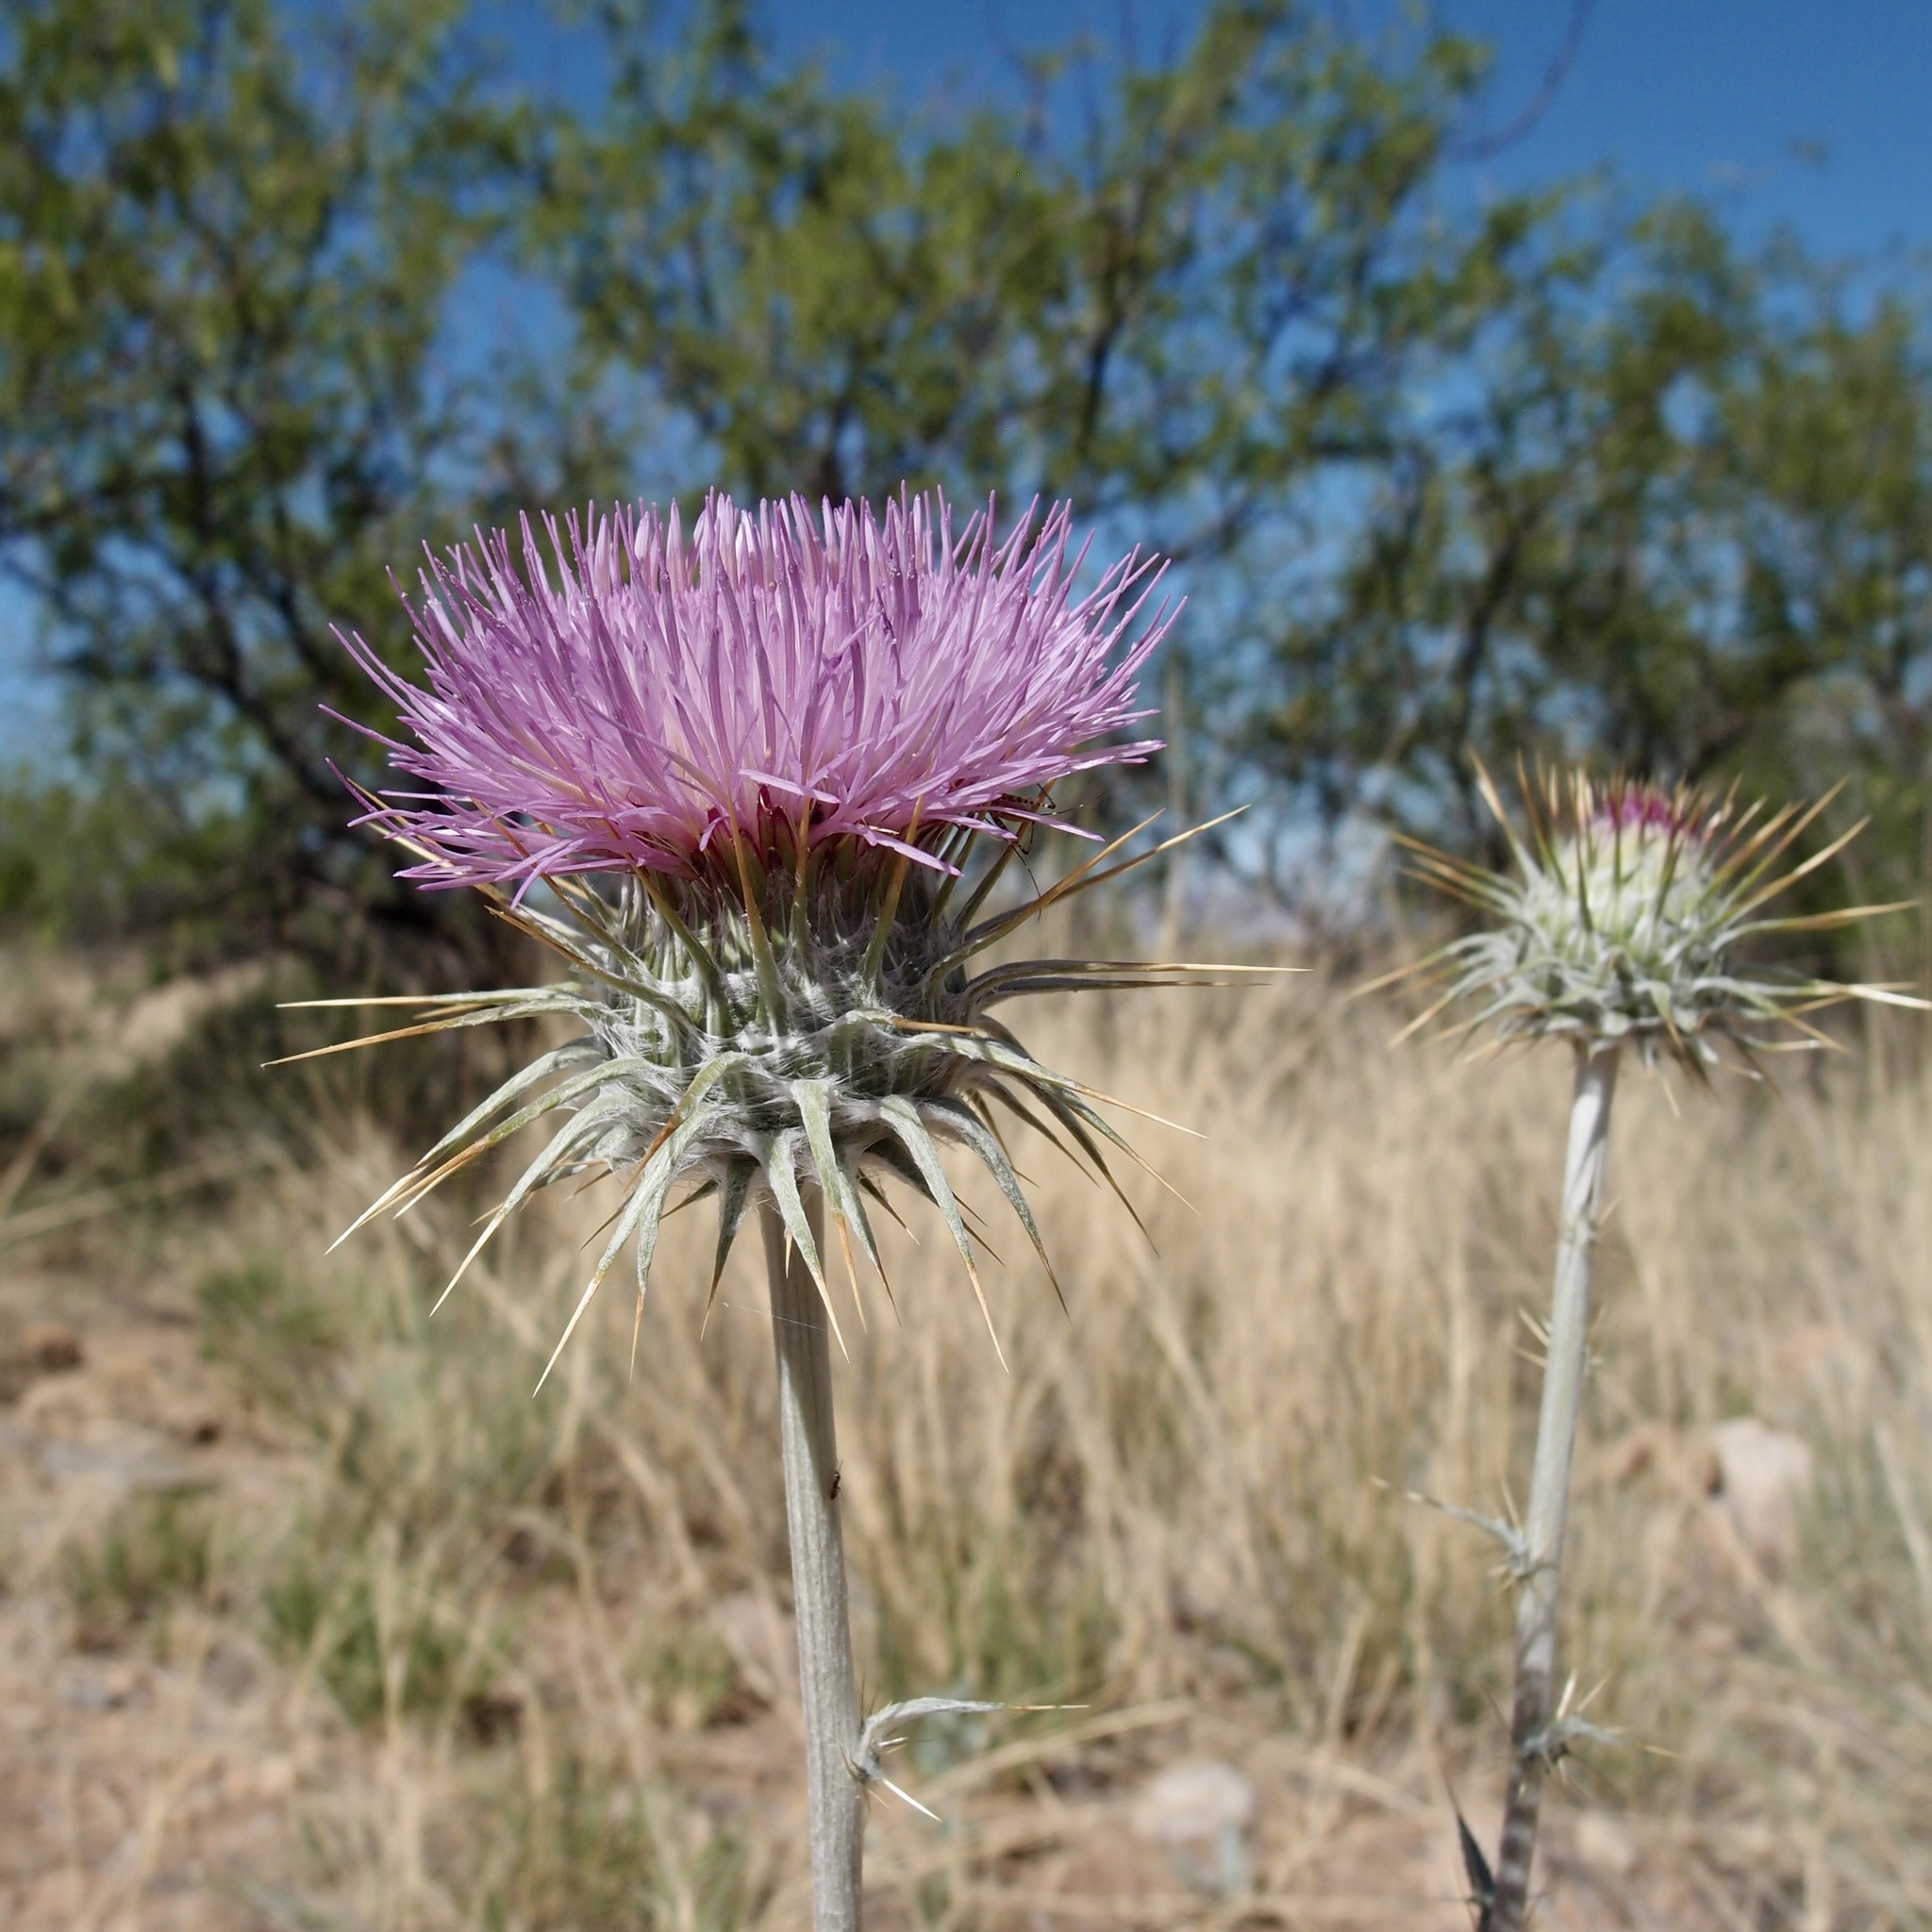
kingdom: Plantae
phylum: Tracheophyta
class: Magnoliopsida
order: Asterales
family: Asteraceae
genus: Cirsium
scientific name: Cirsium neomexicanum
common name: New mexico thistle
